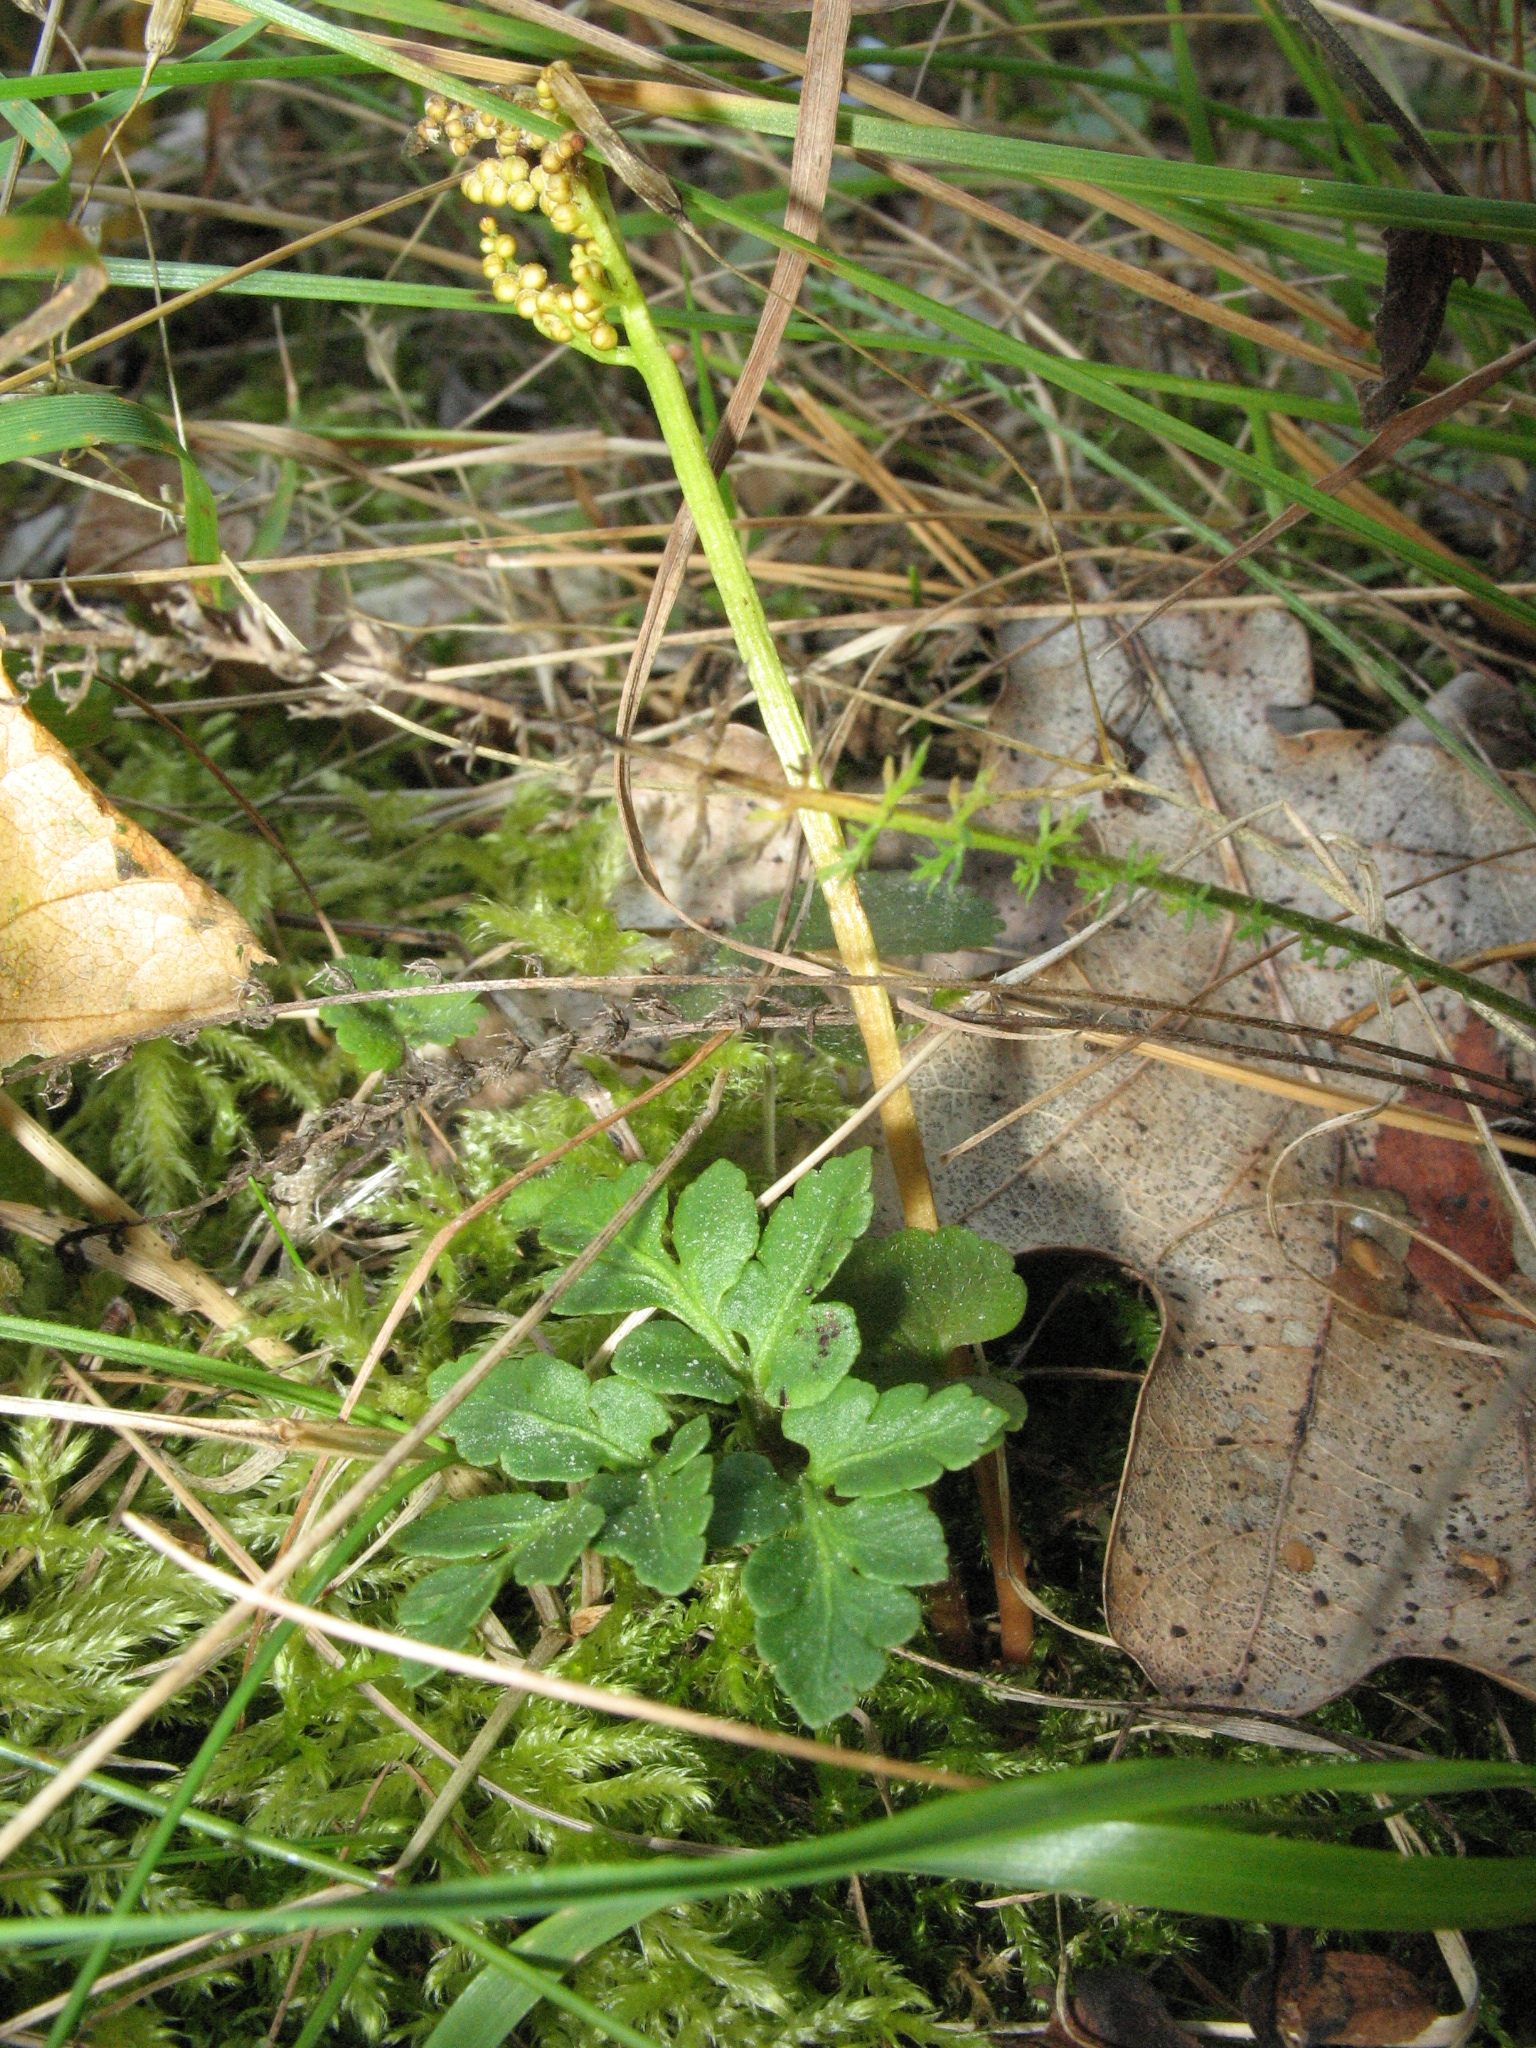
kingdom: Plantae
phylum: Tracheophyta
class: Polypodiopsida
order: Ophioglossales
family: Ophioglossaceae
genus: Sceptridium
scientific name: Sceptridium multifidum
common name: Leathery grape fern
